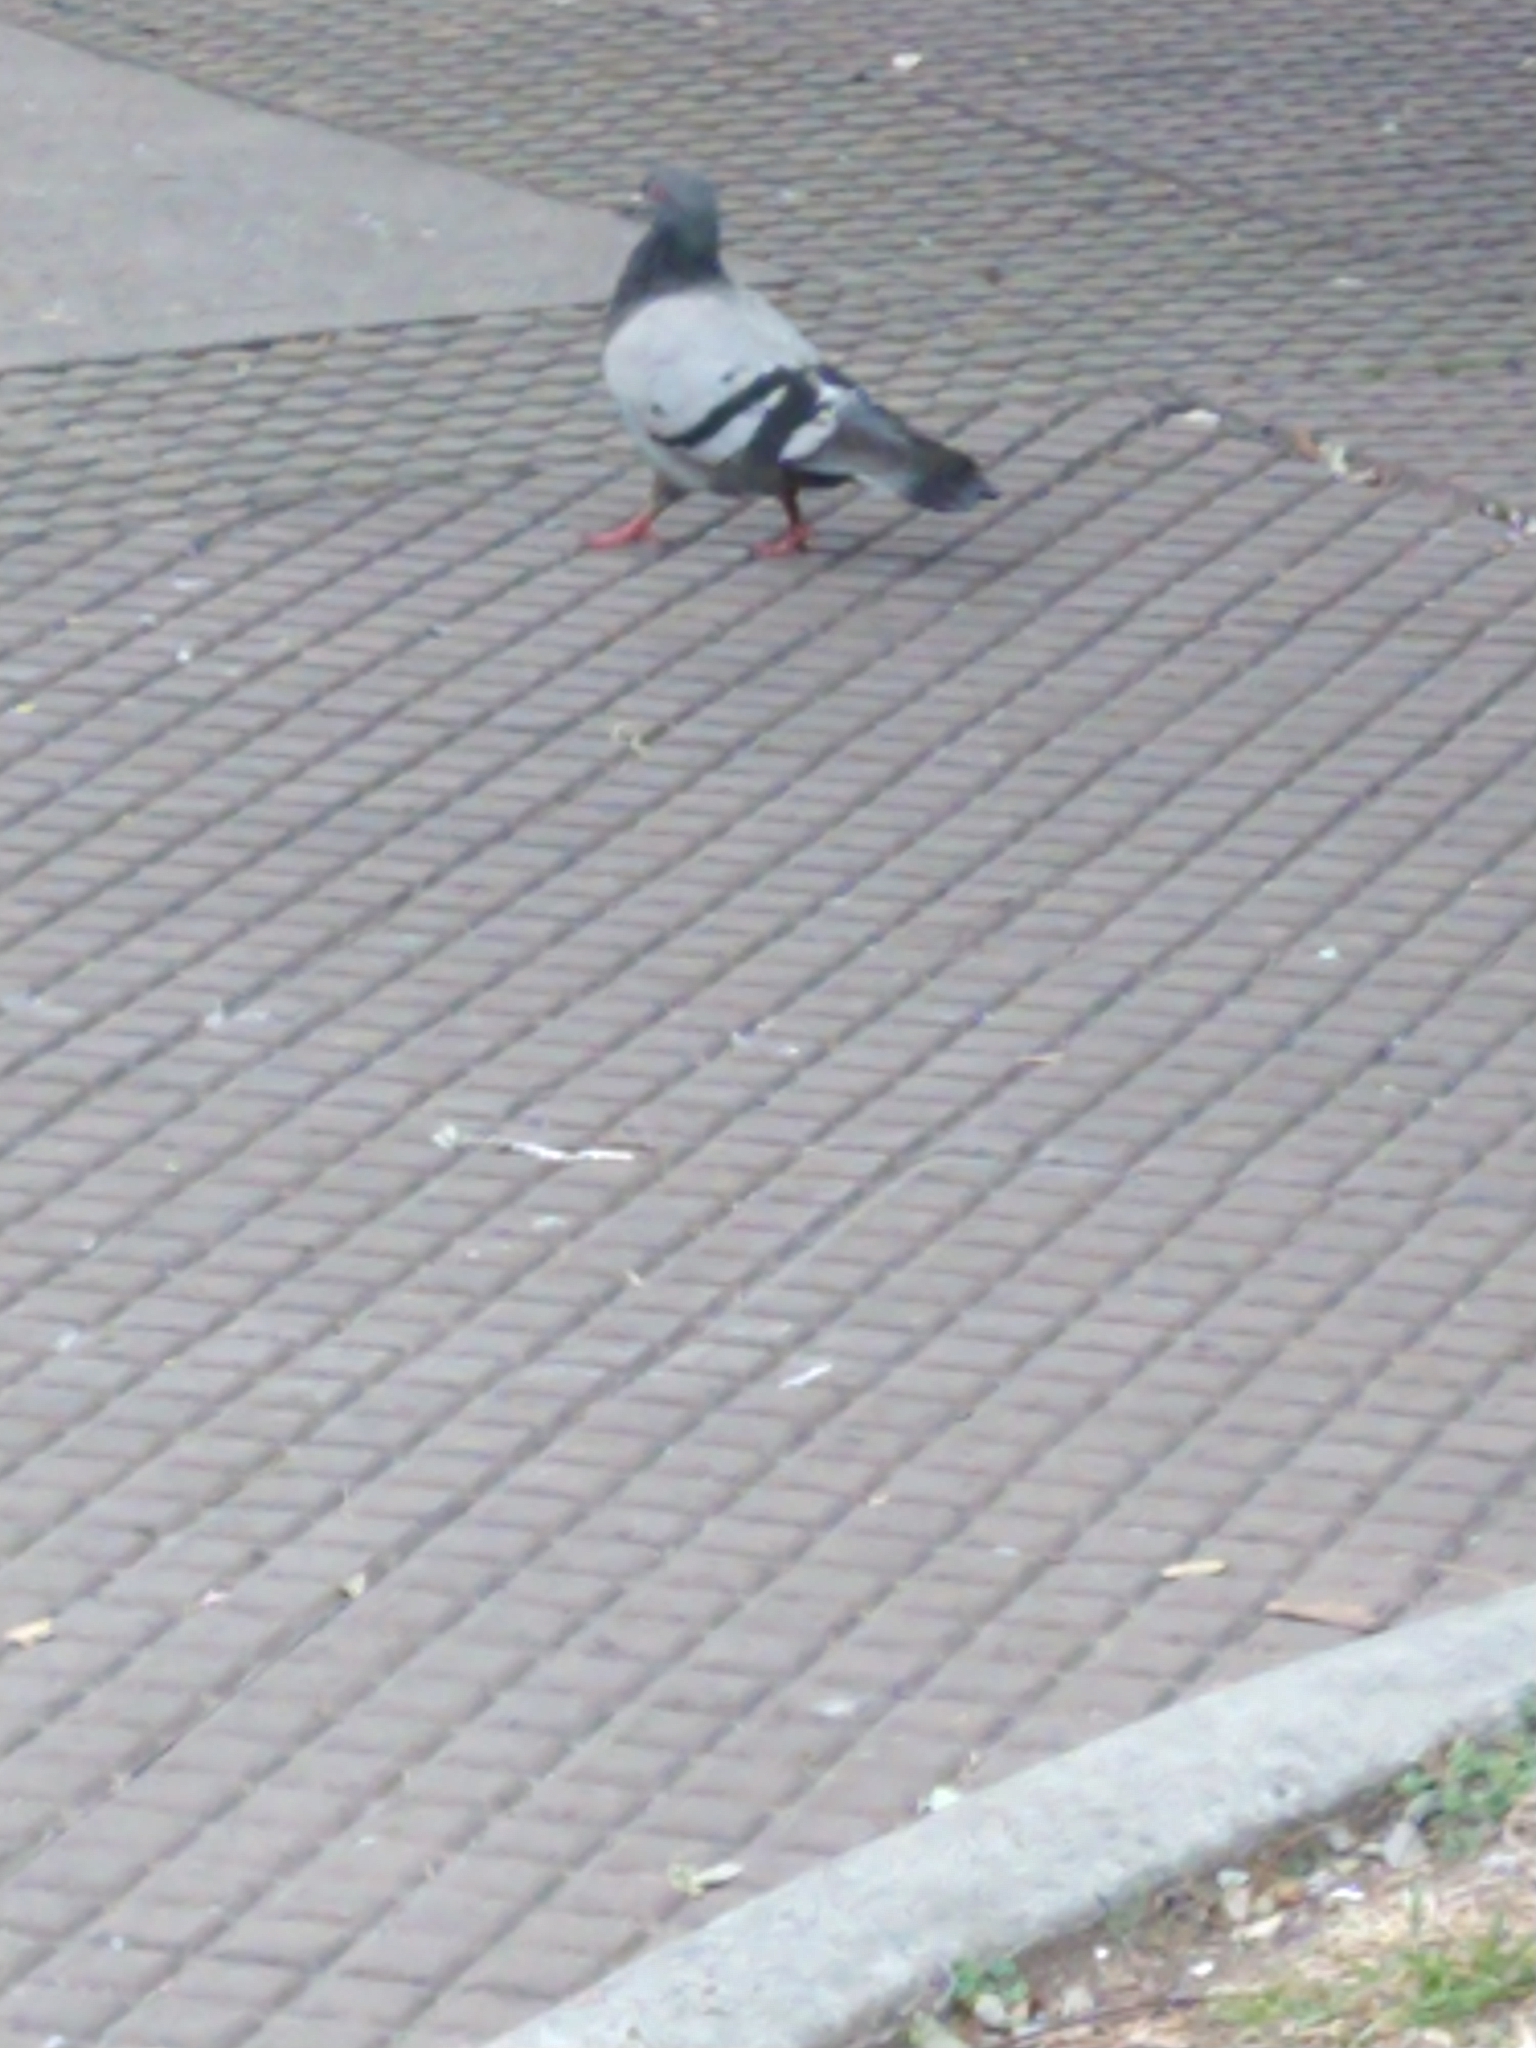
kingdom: Animalia
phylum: Chordata
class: Aves
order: Columbiformes
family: Columbidae
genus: Columba
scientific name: Columba livia
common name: Rock pigeon
